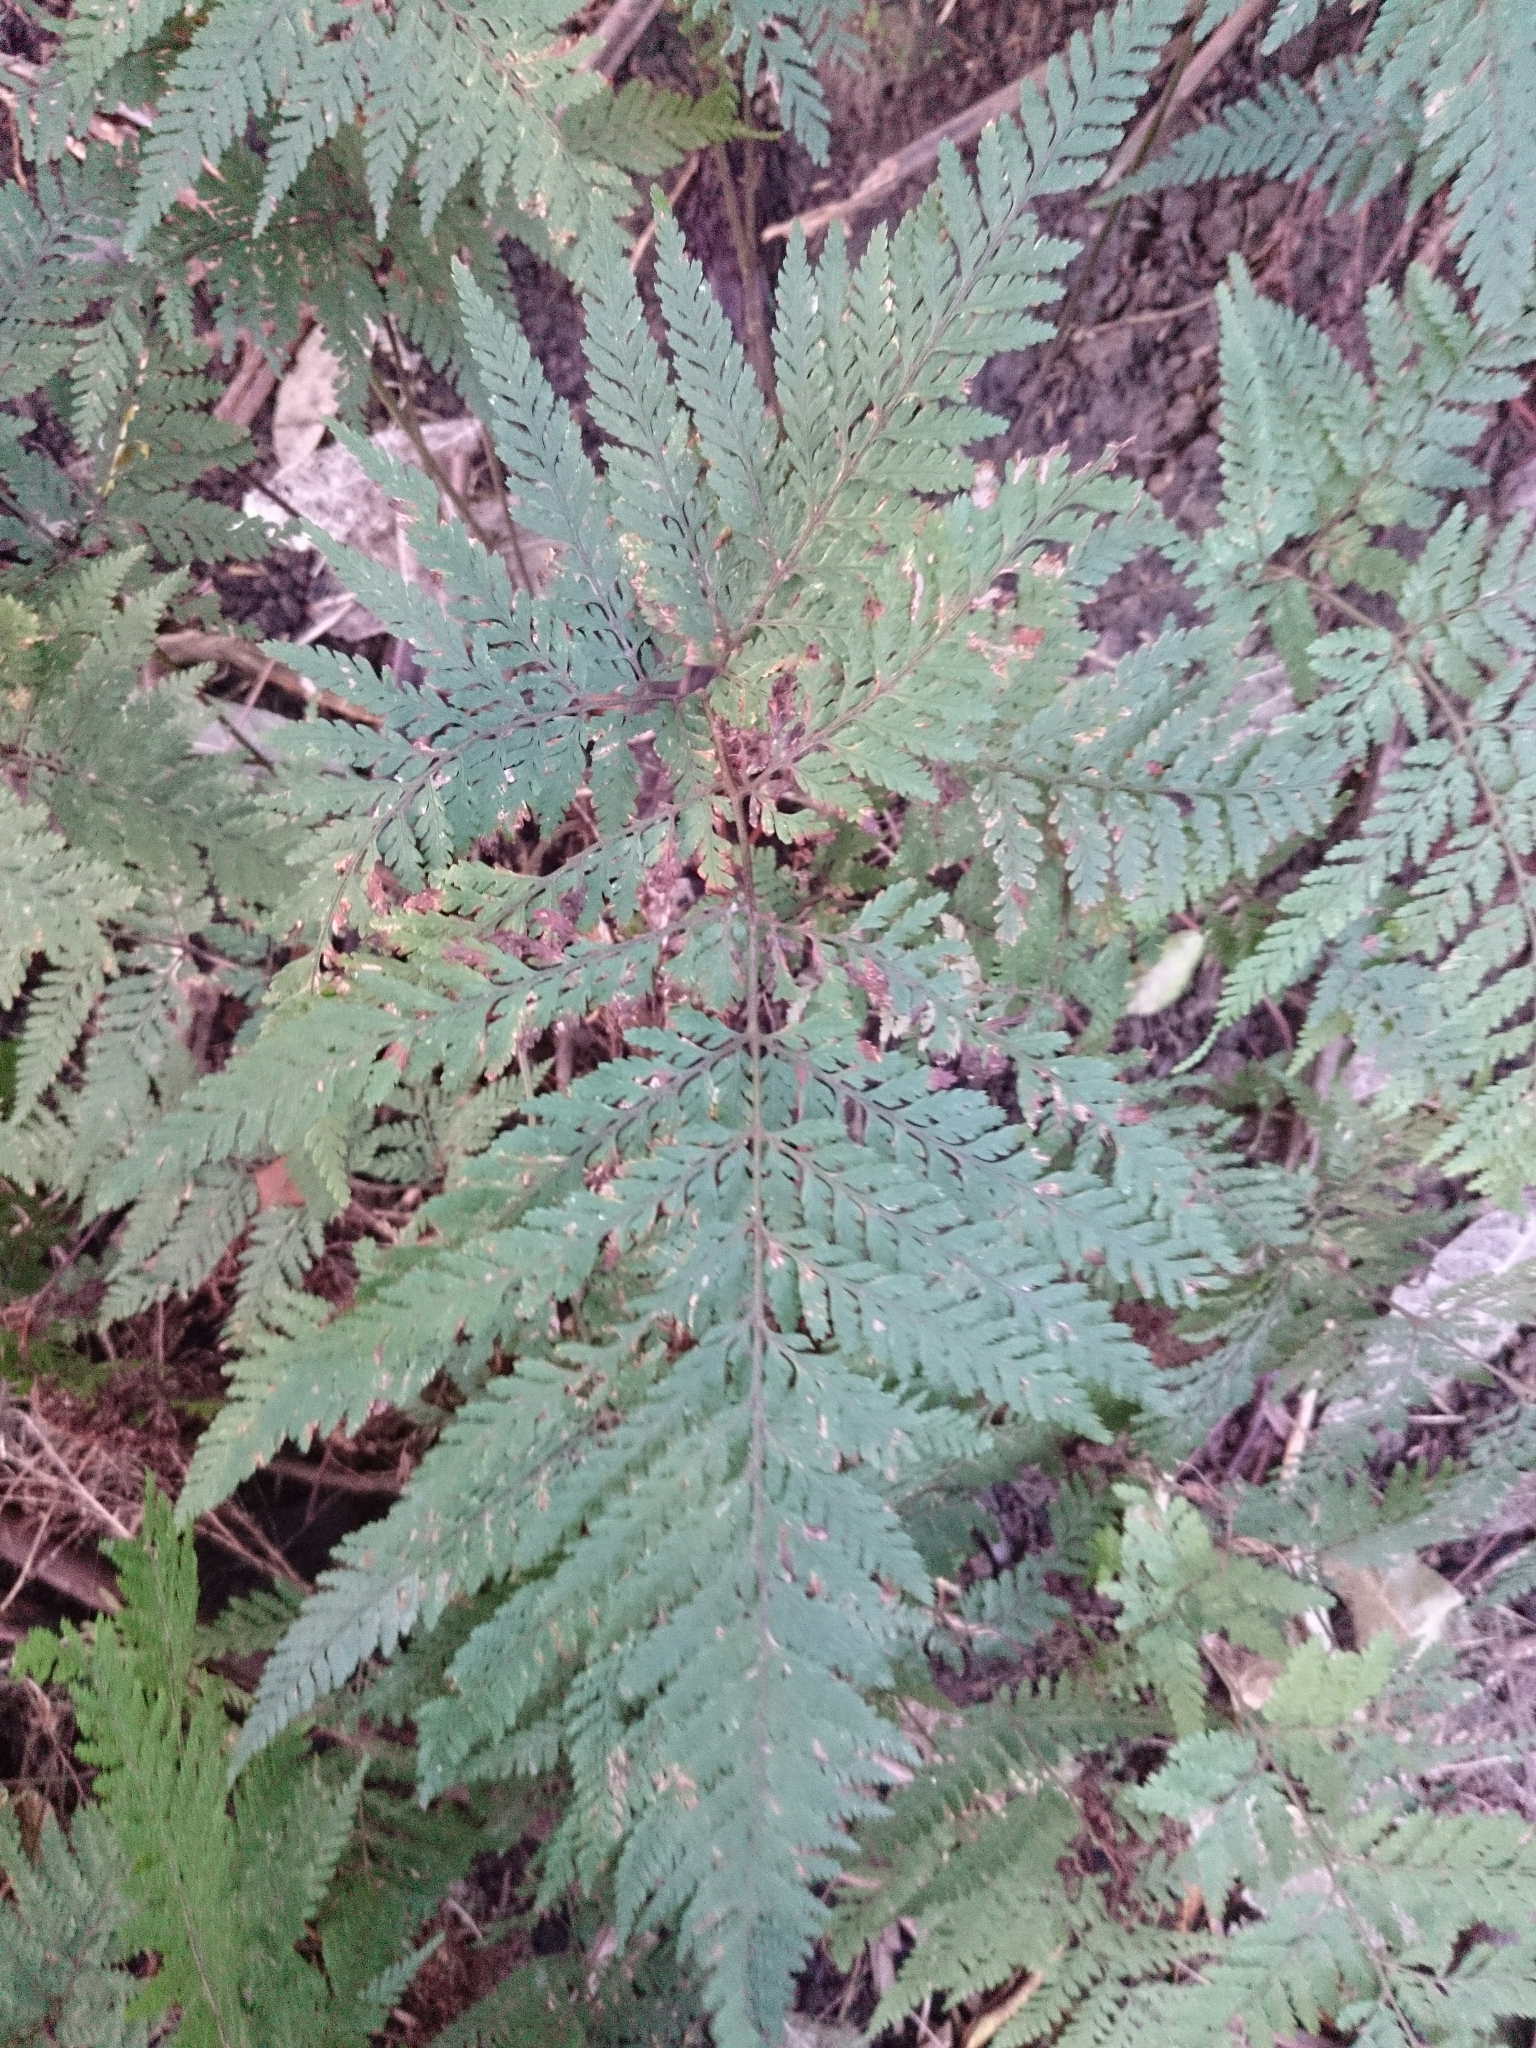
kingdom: Plantae
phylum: Tracheophyta
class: Polypodiopsida
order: Polypodiales
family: Dryopteridaceae
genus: Parapolystichum
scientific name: Parapolystichum glabellum
